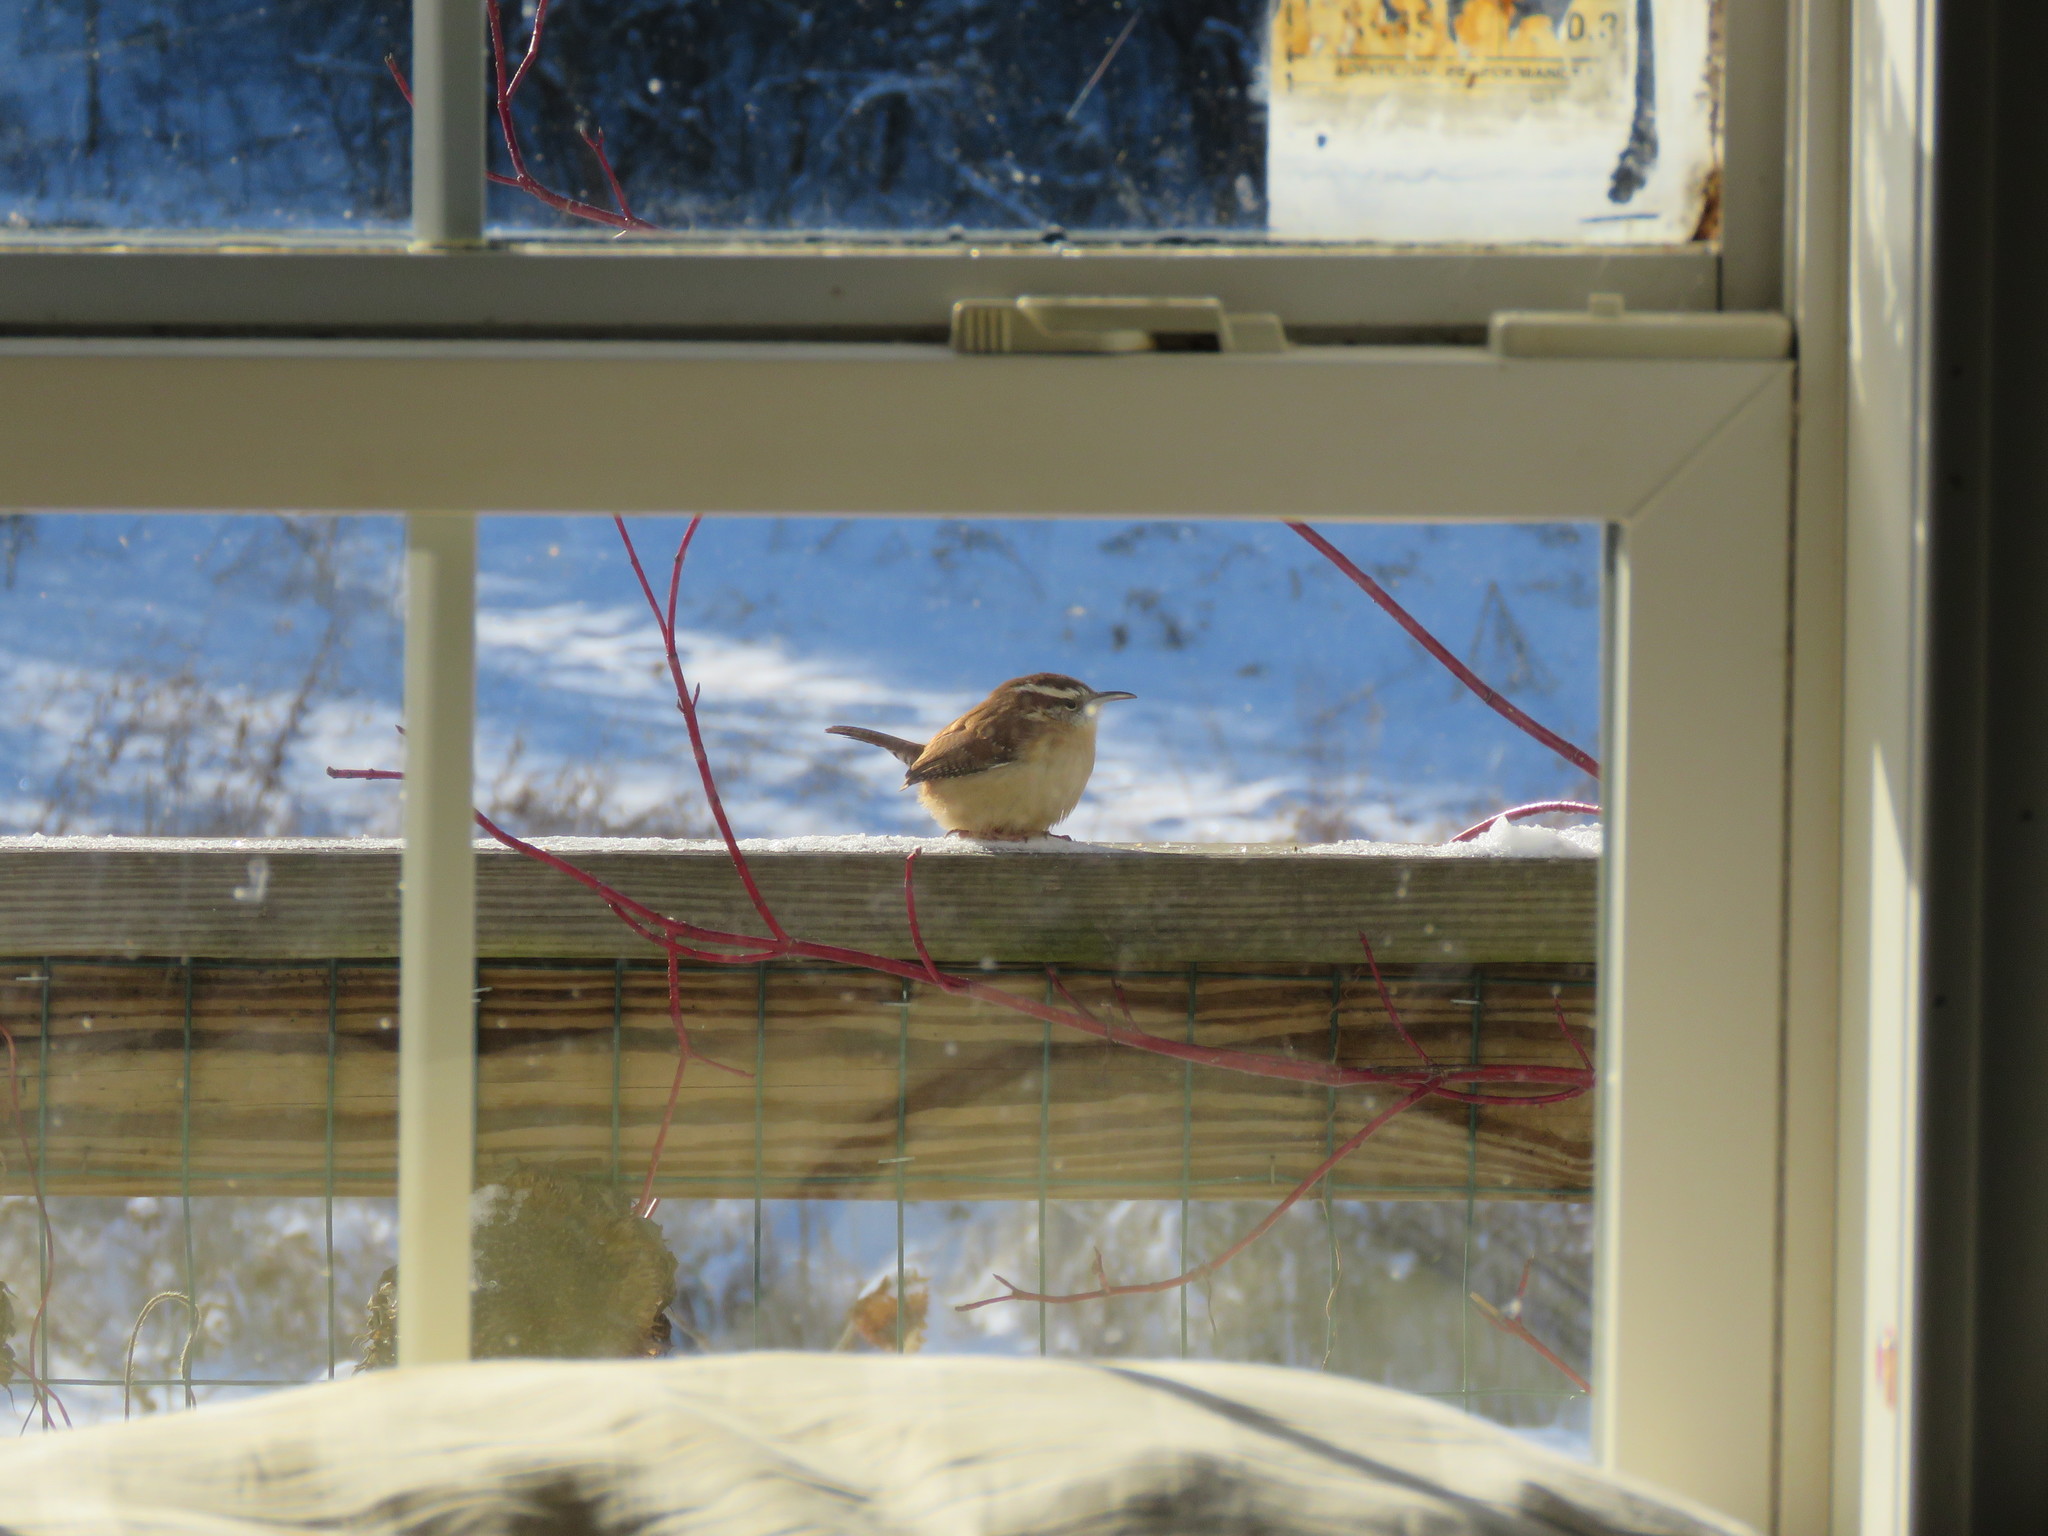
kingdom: Animalia
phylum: Chordata
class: Aves
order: Passeriformes
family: Troglodytidae
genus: Thryothorus
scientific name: Thryothorus ludovicianus
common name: Carolina wren
